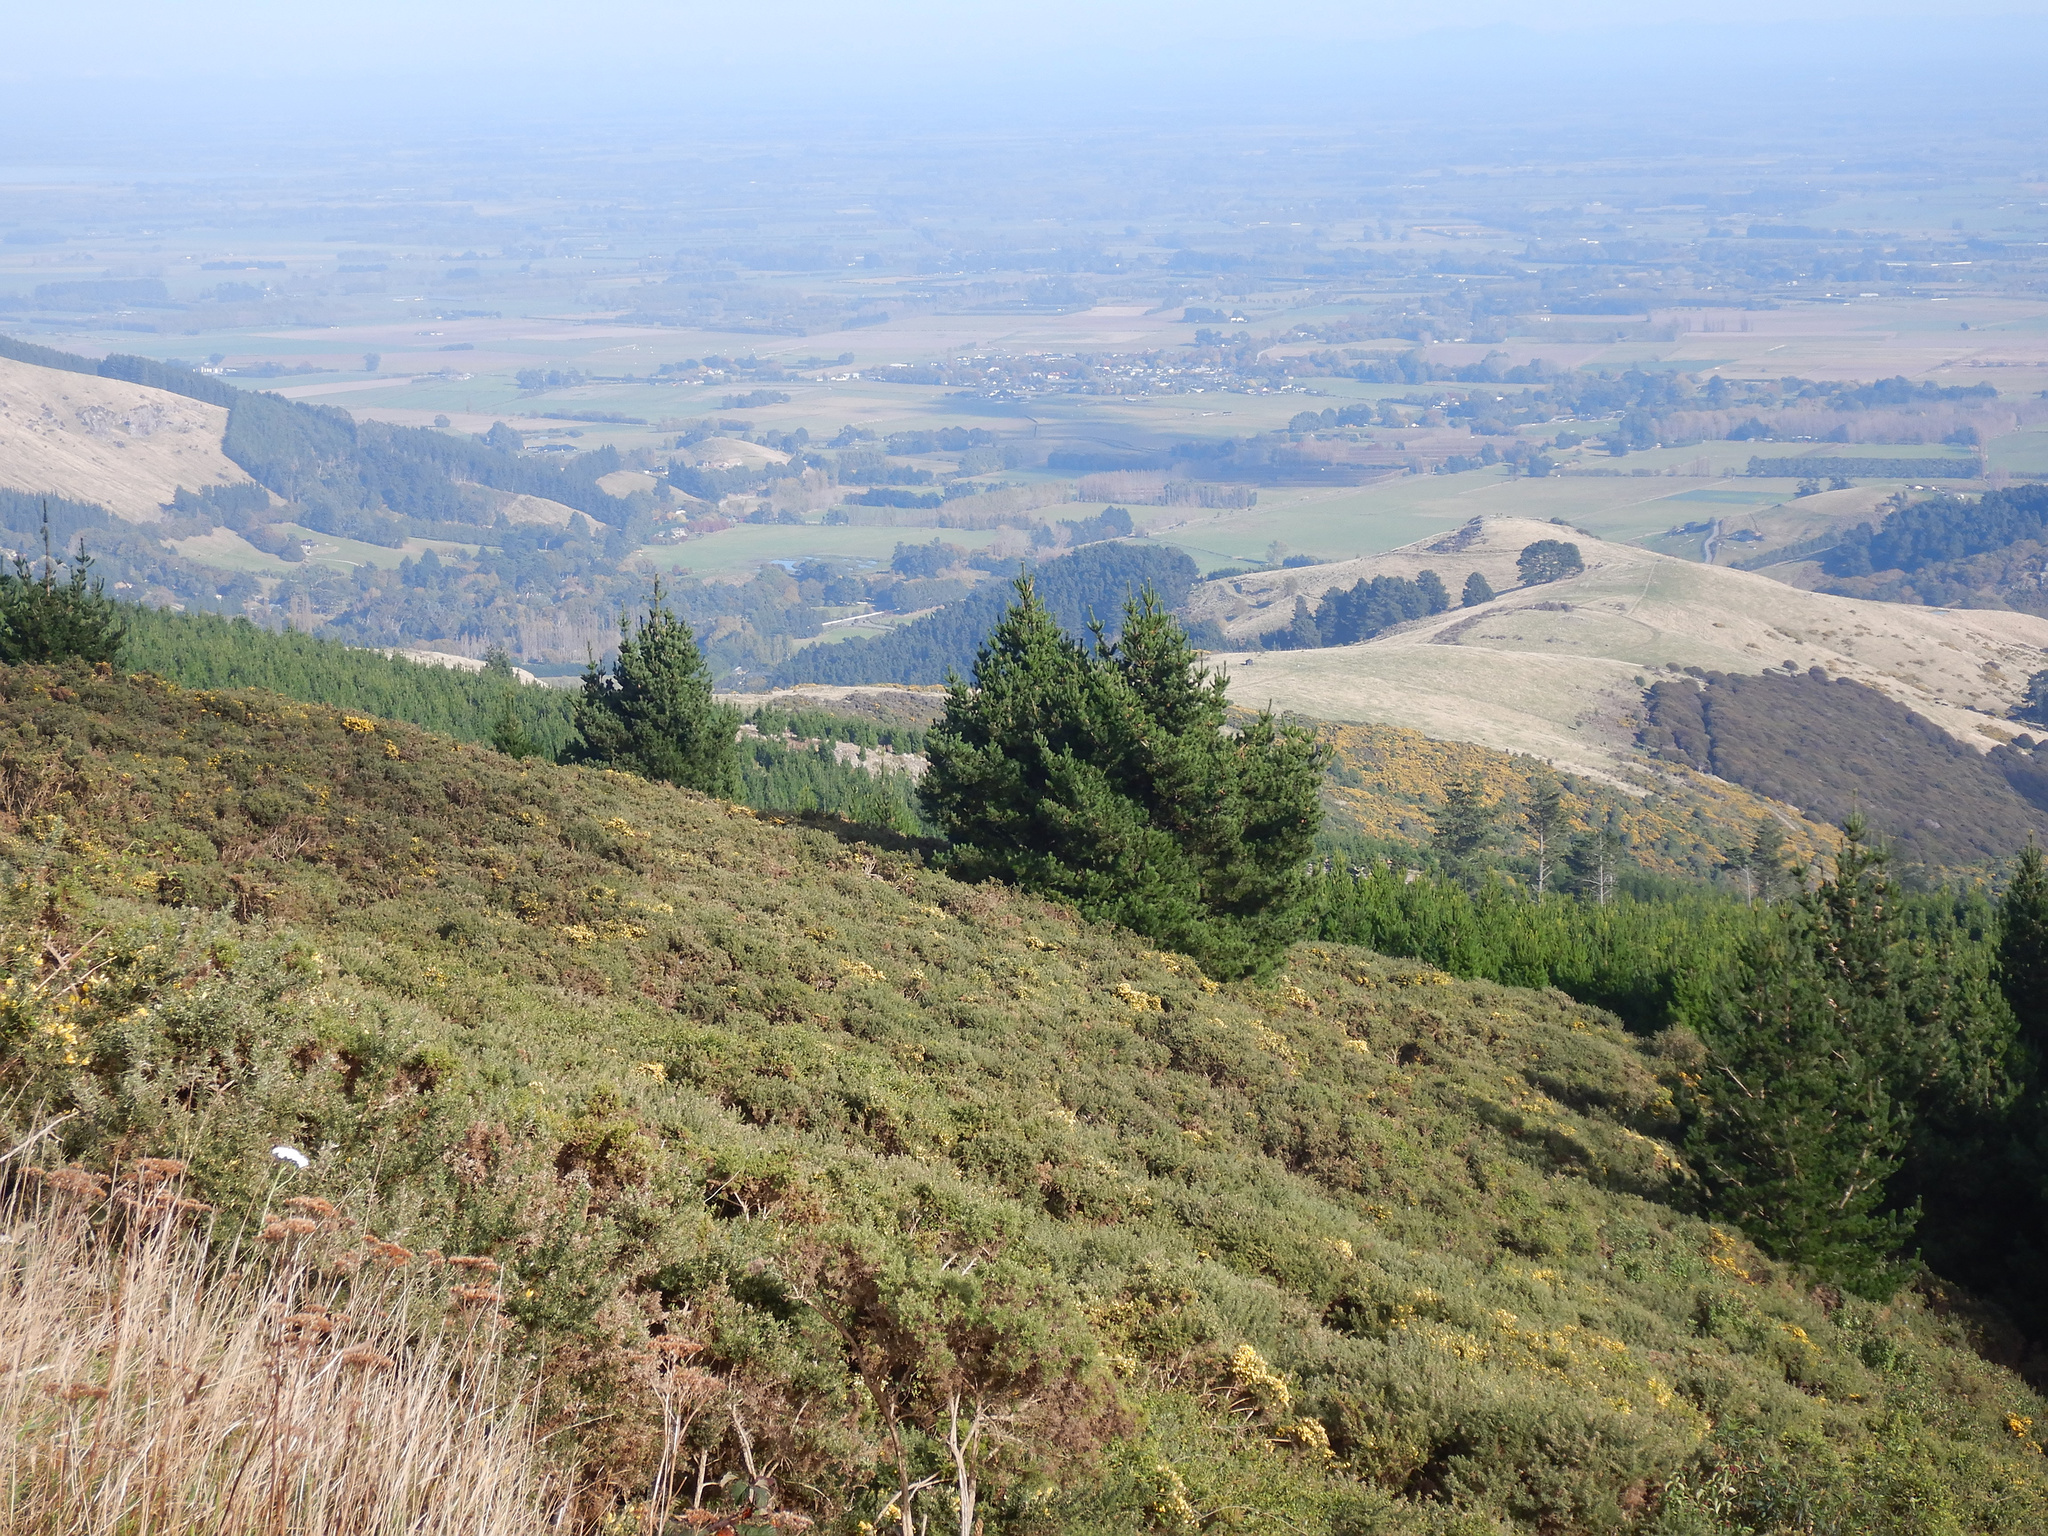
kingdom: Plantae
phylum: Tracheophyta
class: Pinopsida
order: Pinales
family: Pinaceae
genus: Pinus
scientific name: Pinus radiata
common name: Monterey pine
